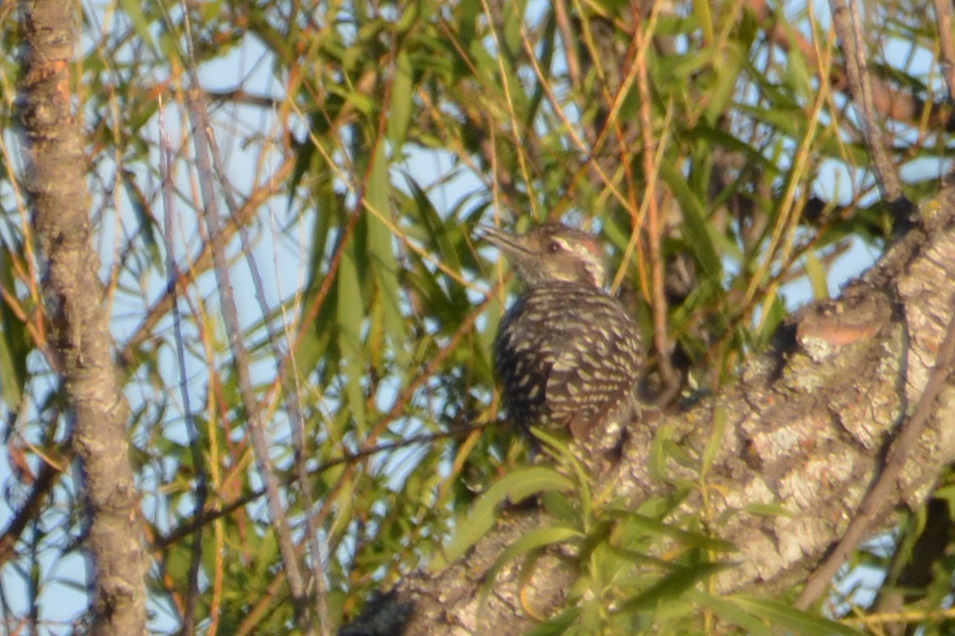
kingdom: Animalia
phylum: Chordata
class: Aves
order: Piciformes
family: Picidae
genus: Veniliornis
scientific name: Veniliornis mixtus
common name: Checkered woodpecker
